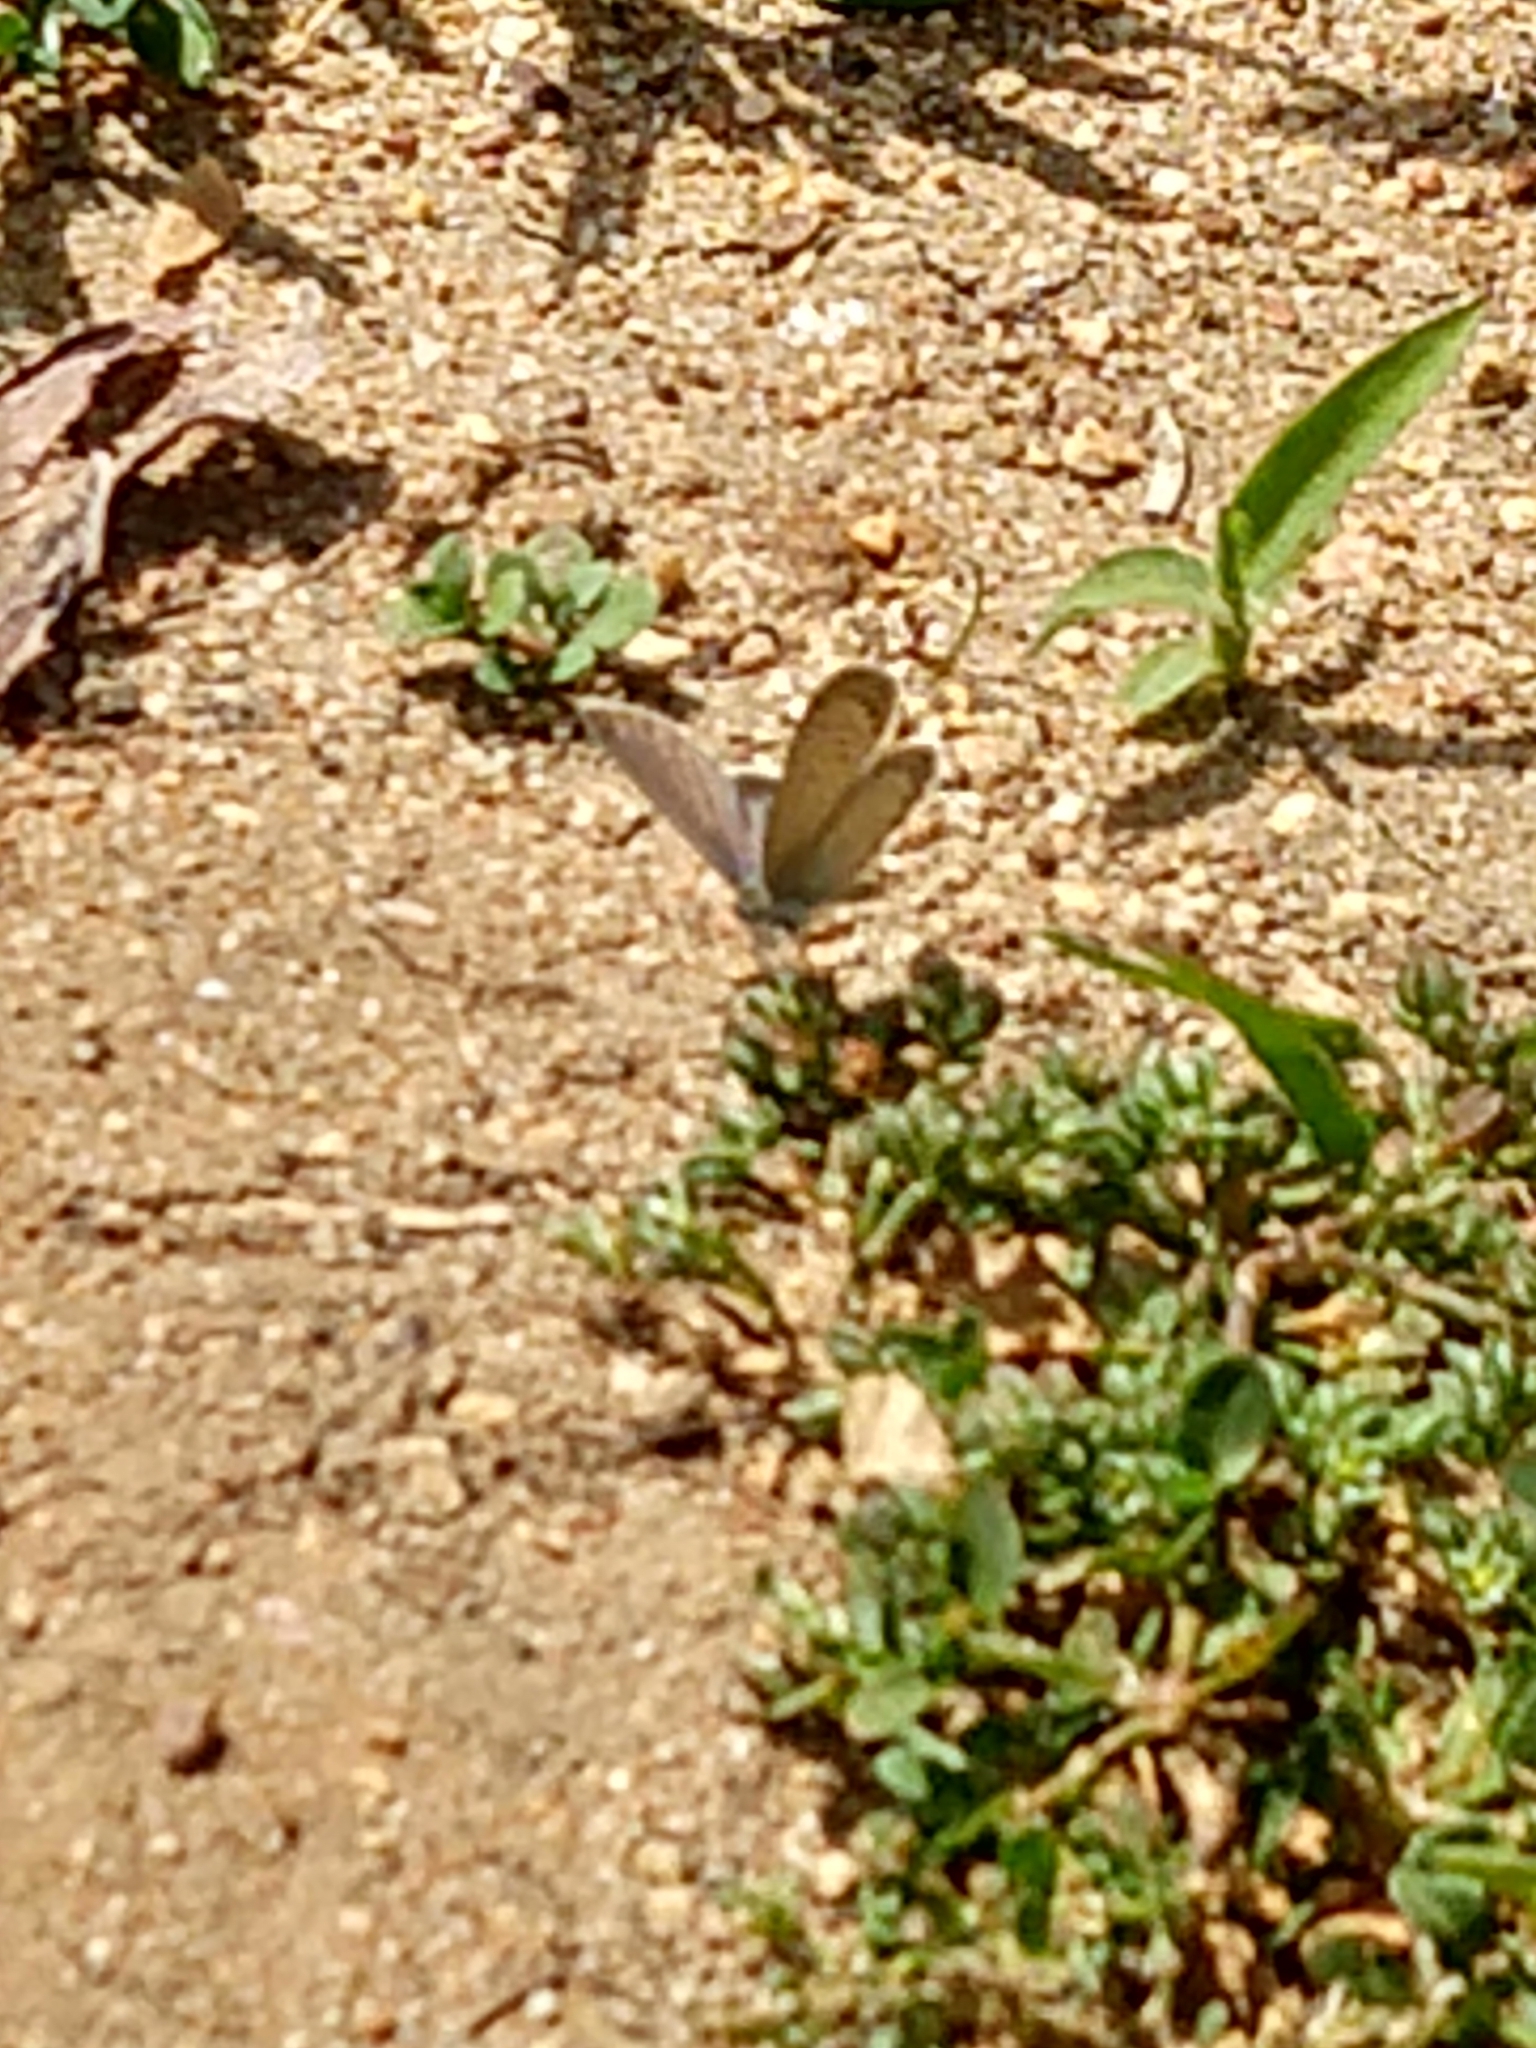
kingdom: Animalia
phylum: Arthropoda
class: Insecta
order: Lepidoptera
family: Lycaenidae
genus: Zizeeria
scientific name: Zizeeria knysna
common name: African grass blue
